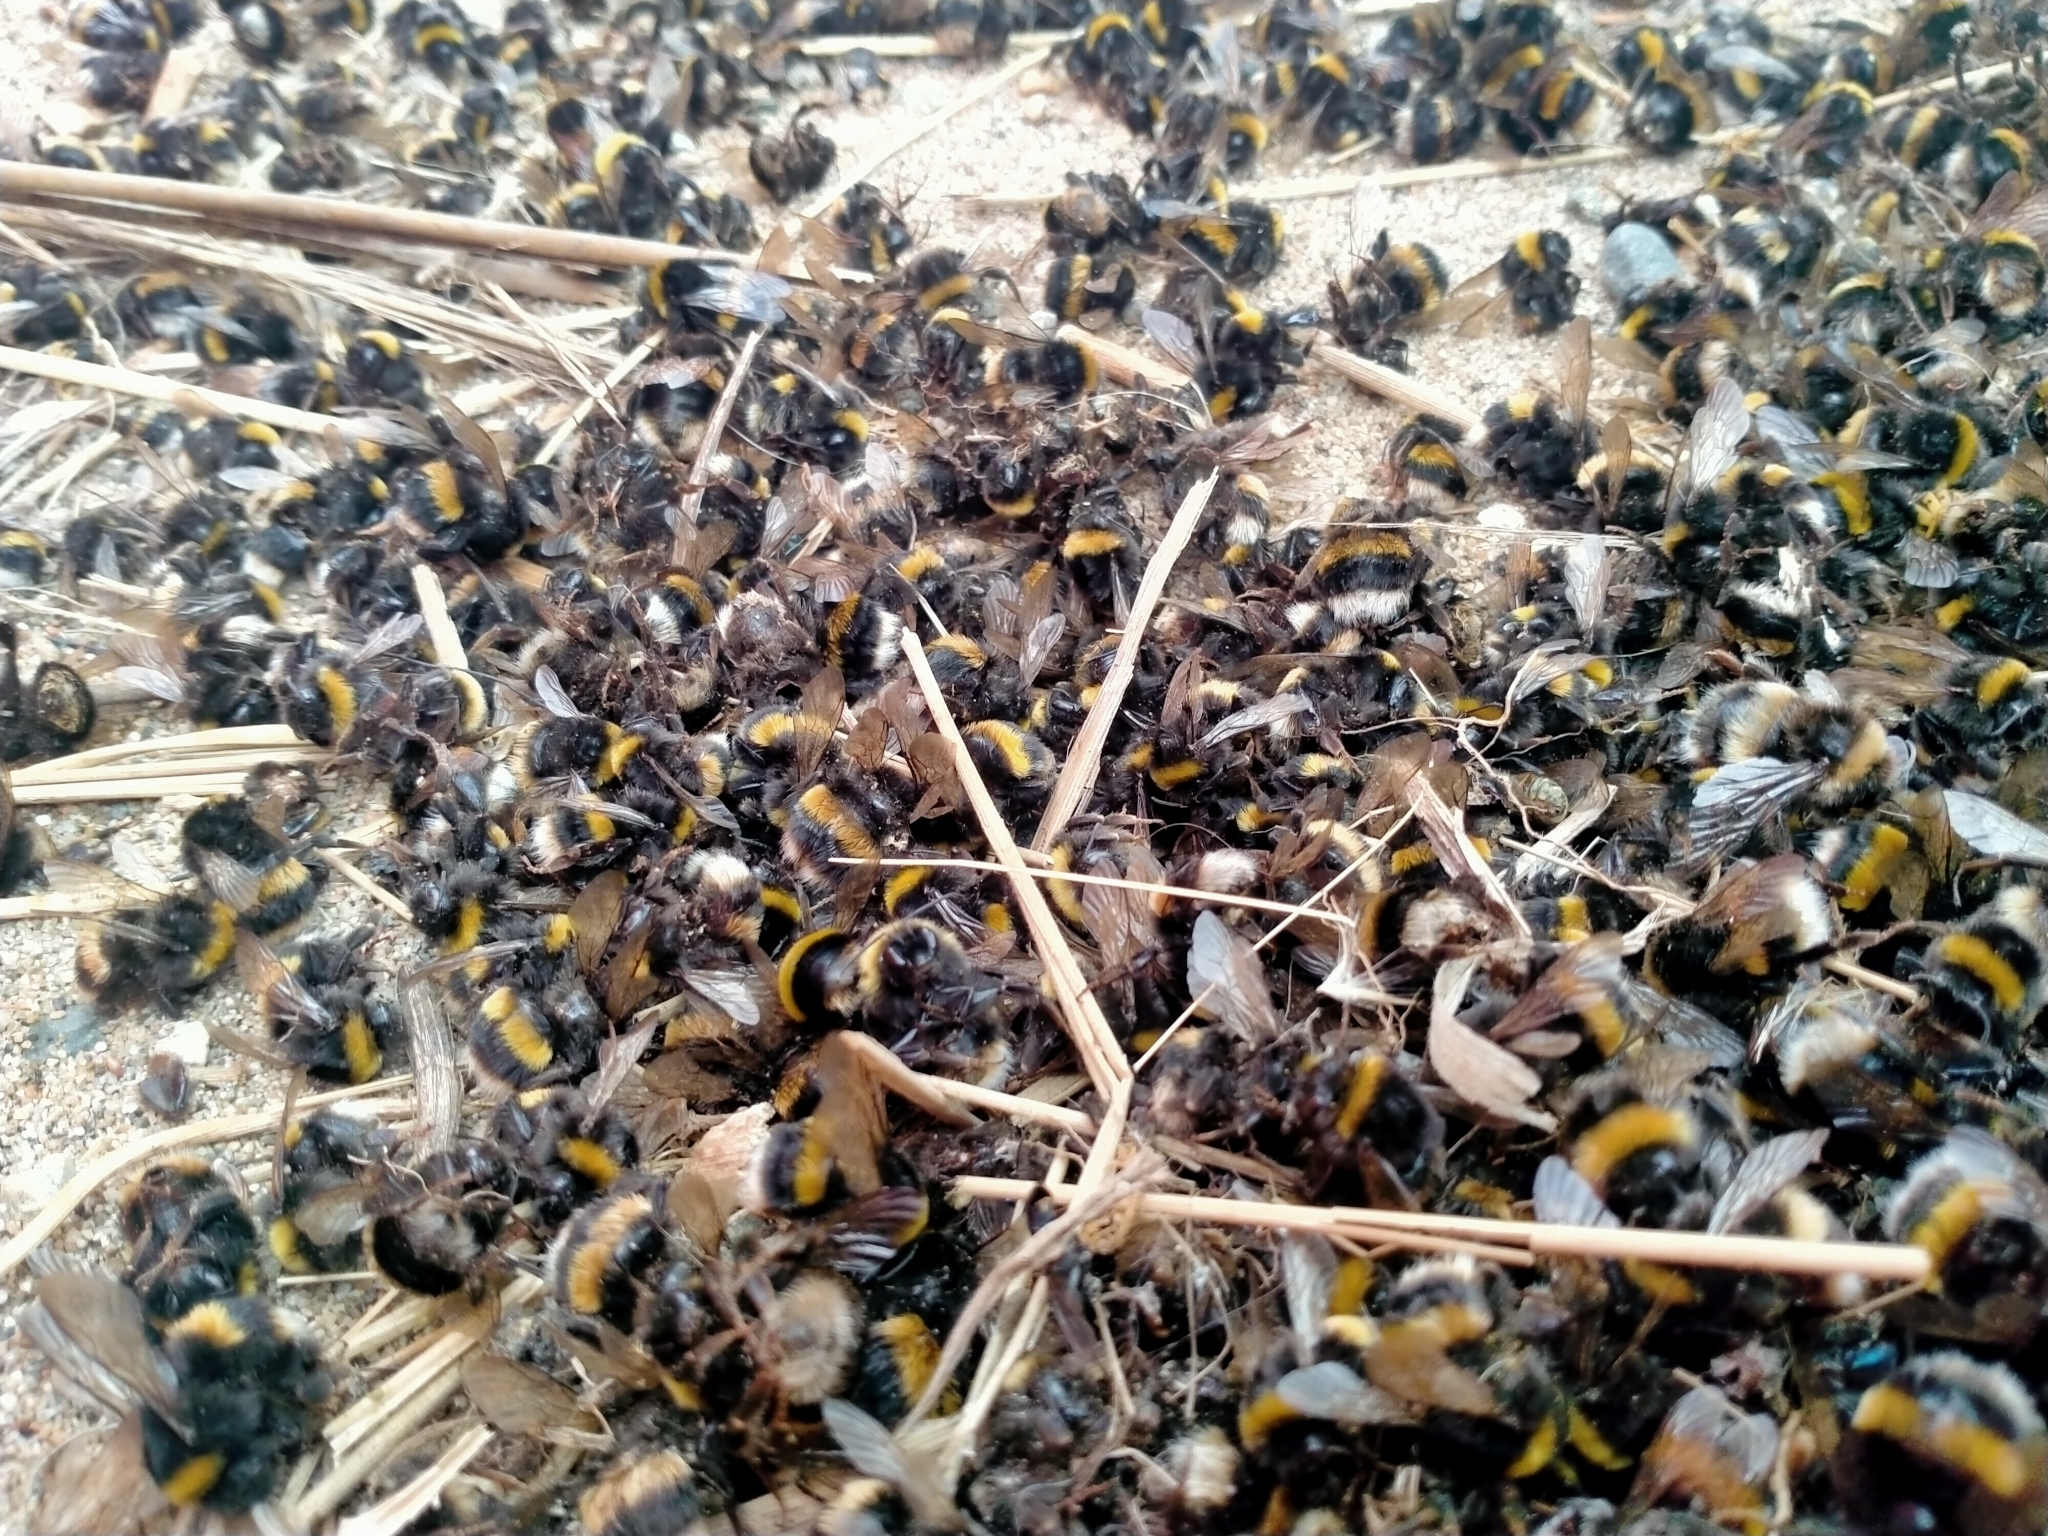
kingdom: Animalia
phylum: Arthropoda
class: Insecta
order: Hymenoptera
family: Apidae
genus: Bombus
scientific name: Bombus terrestris
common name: Buff-tailed bumblebee
